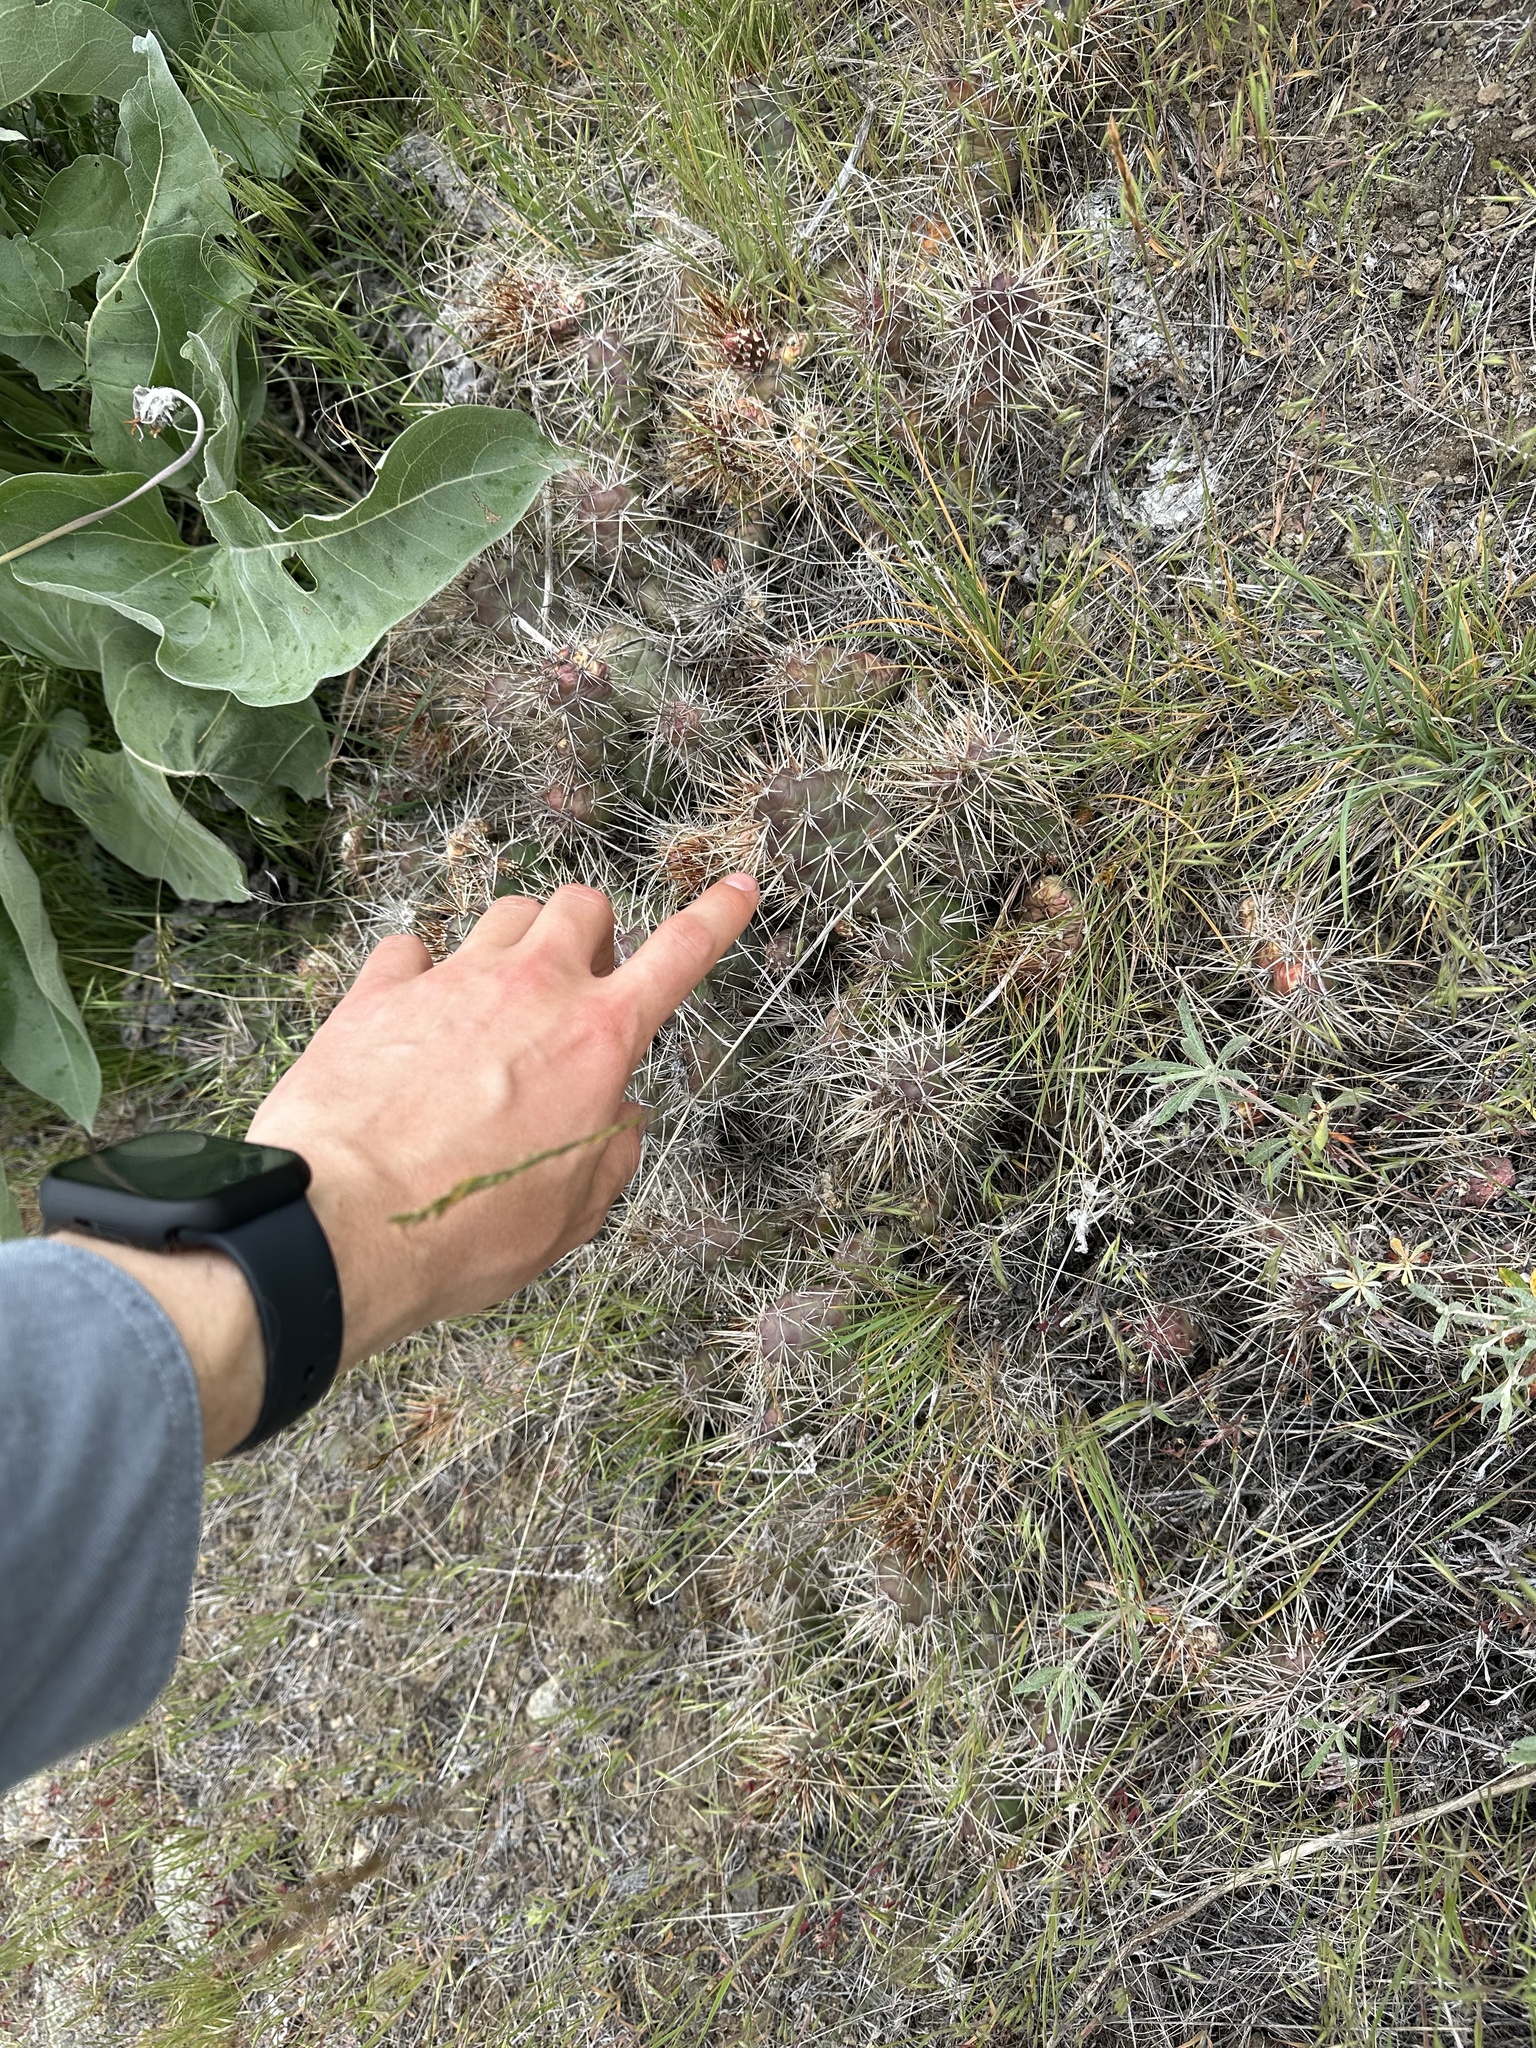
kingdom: Plantae
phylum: Tracheophyta
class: Magnoliopsida
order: Caryophyllales
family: Cactaceae
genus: Opuntia
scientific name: Opuntia fragilis
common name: Brittle cactus
